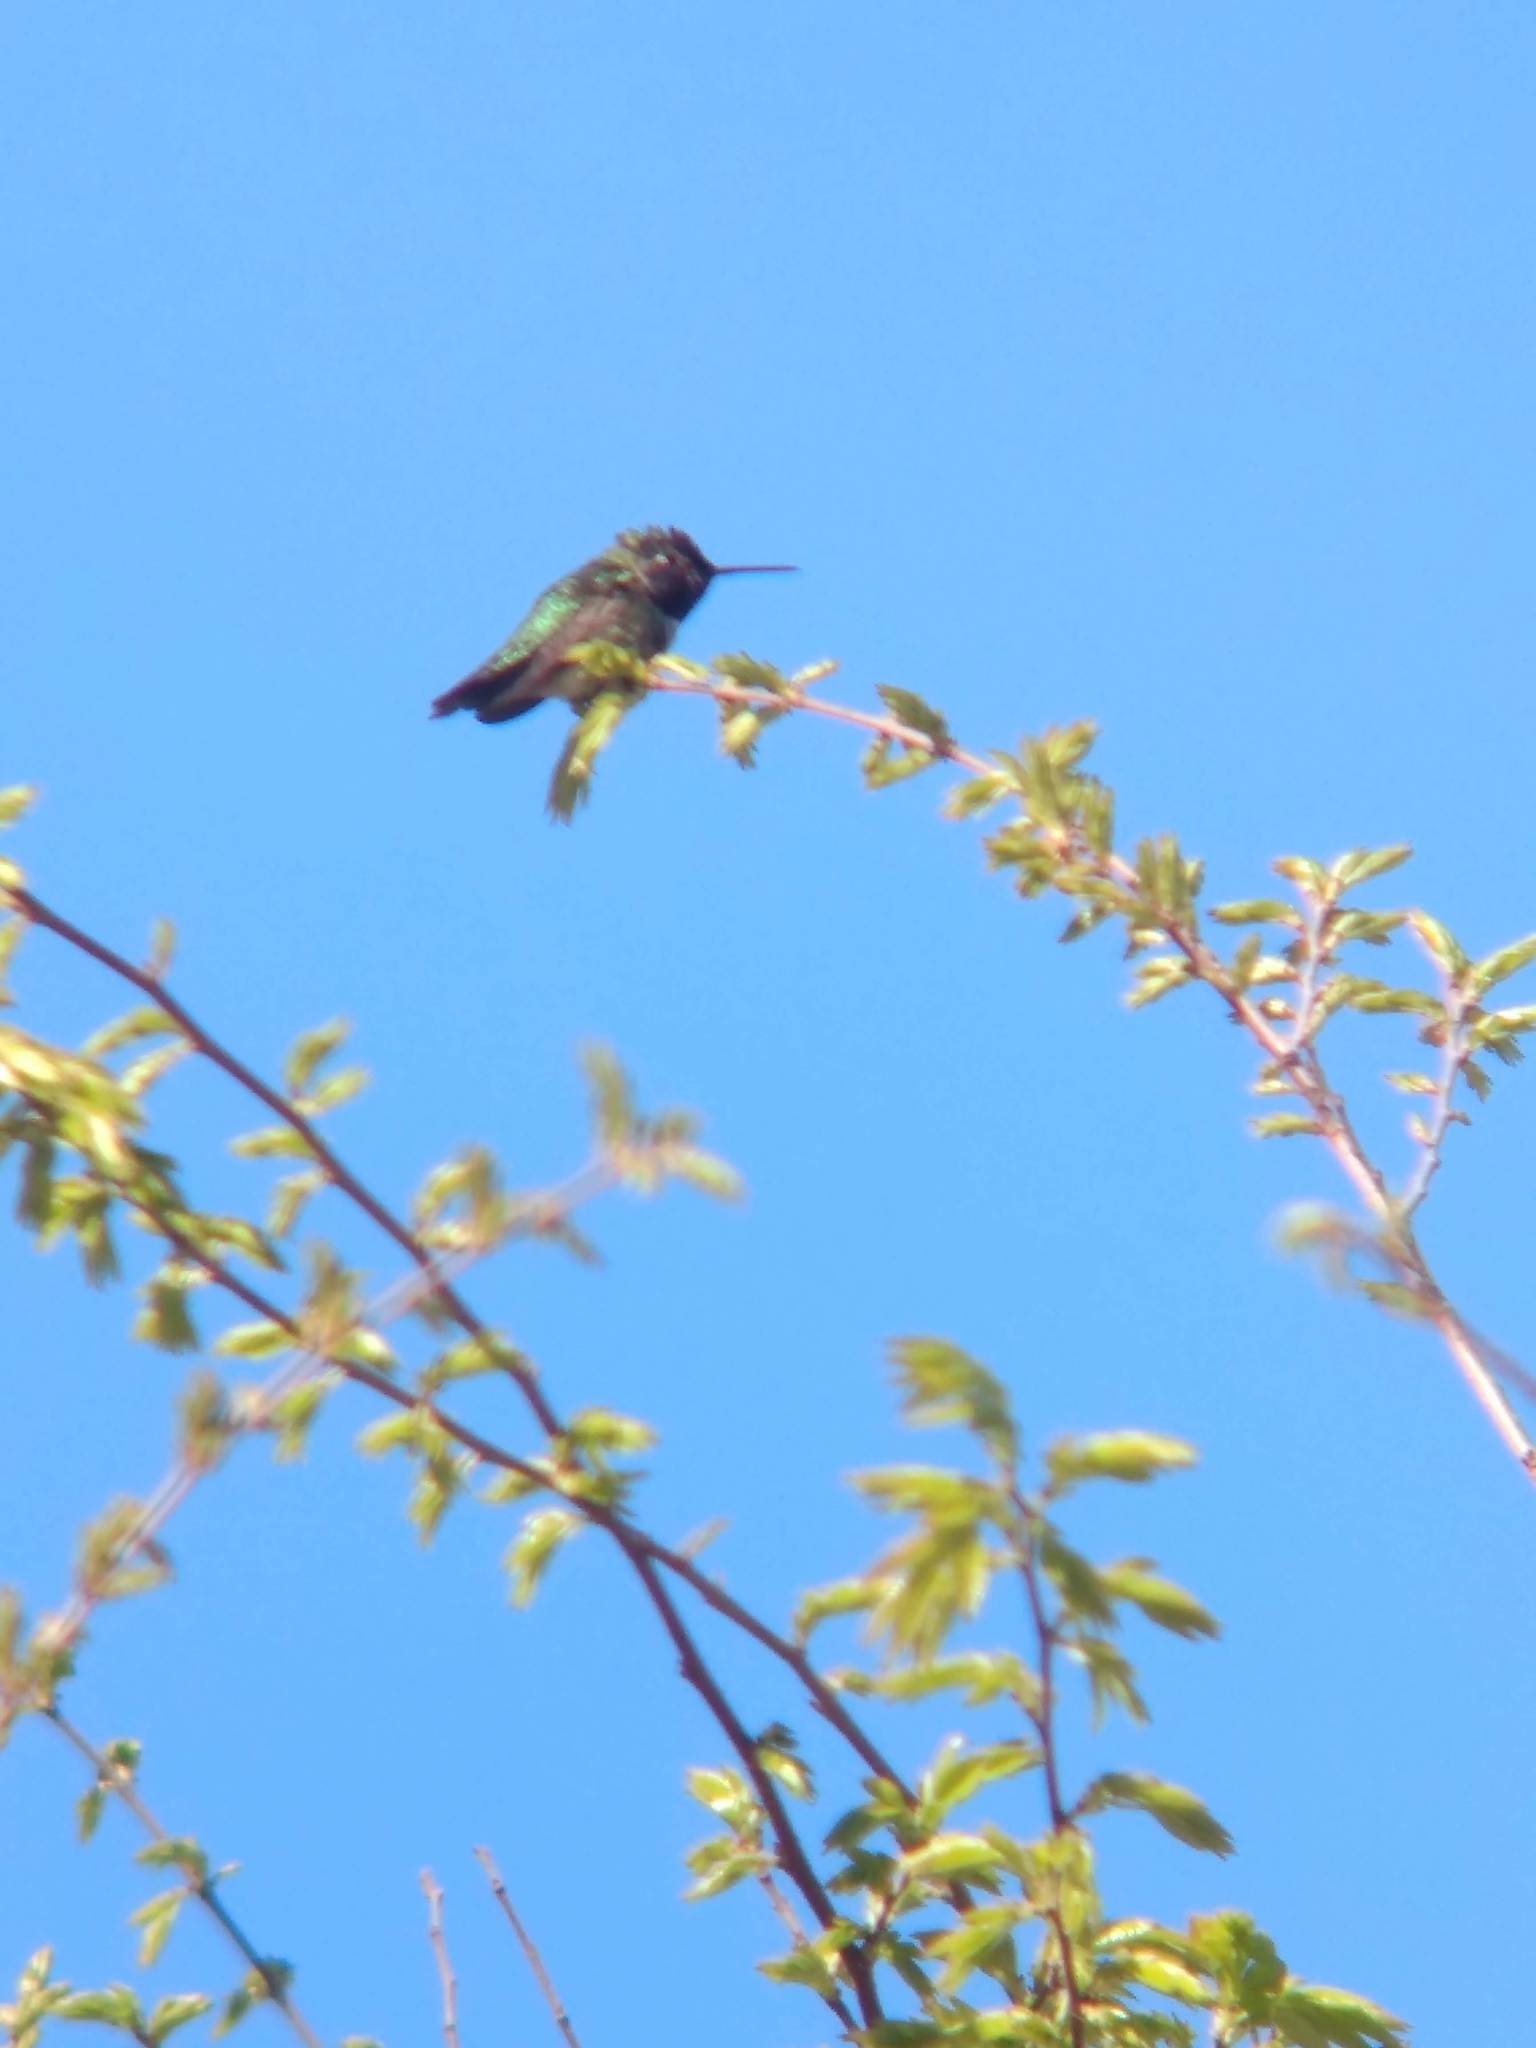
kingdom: Animalia
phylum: Chordata
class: Aves
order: Apodiformes
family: Trochilidae
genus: Calypte
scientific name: Calypte anna
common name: Anna's hummingbird
